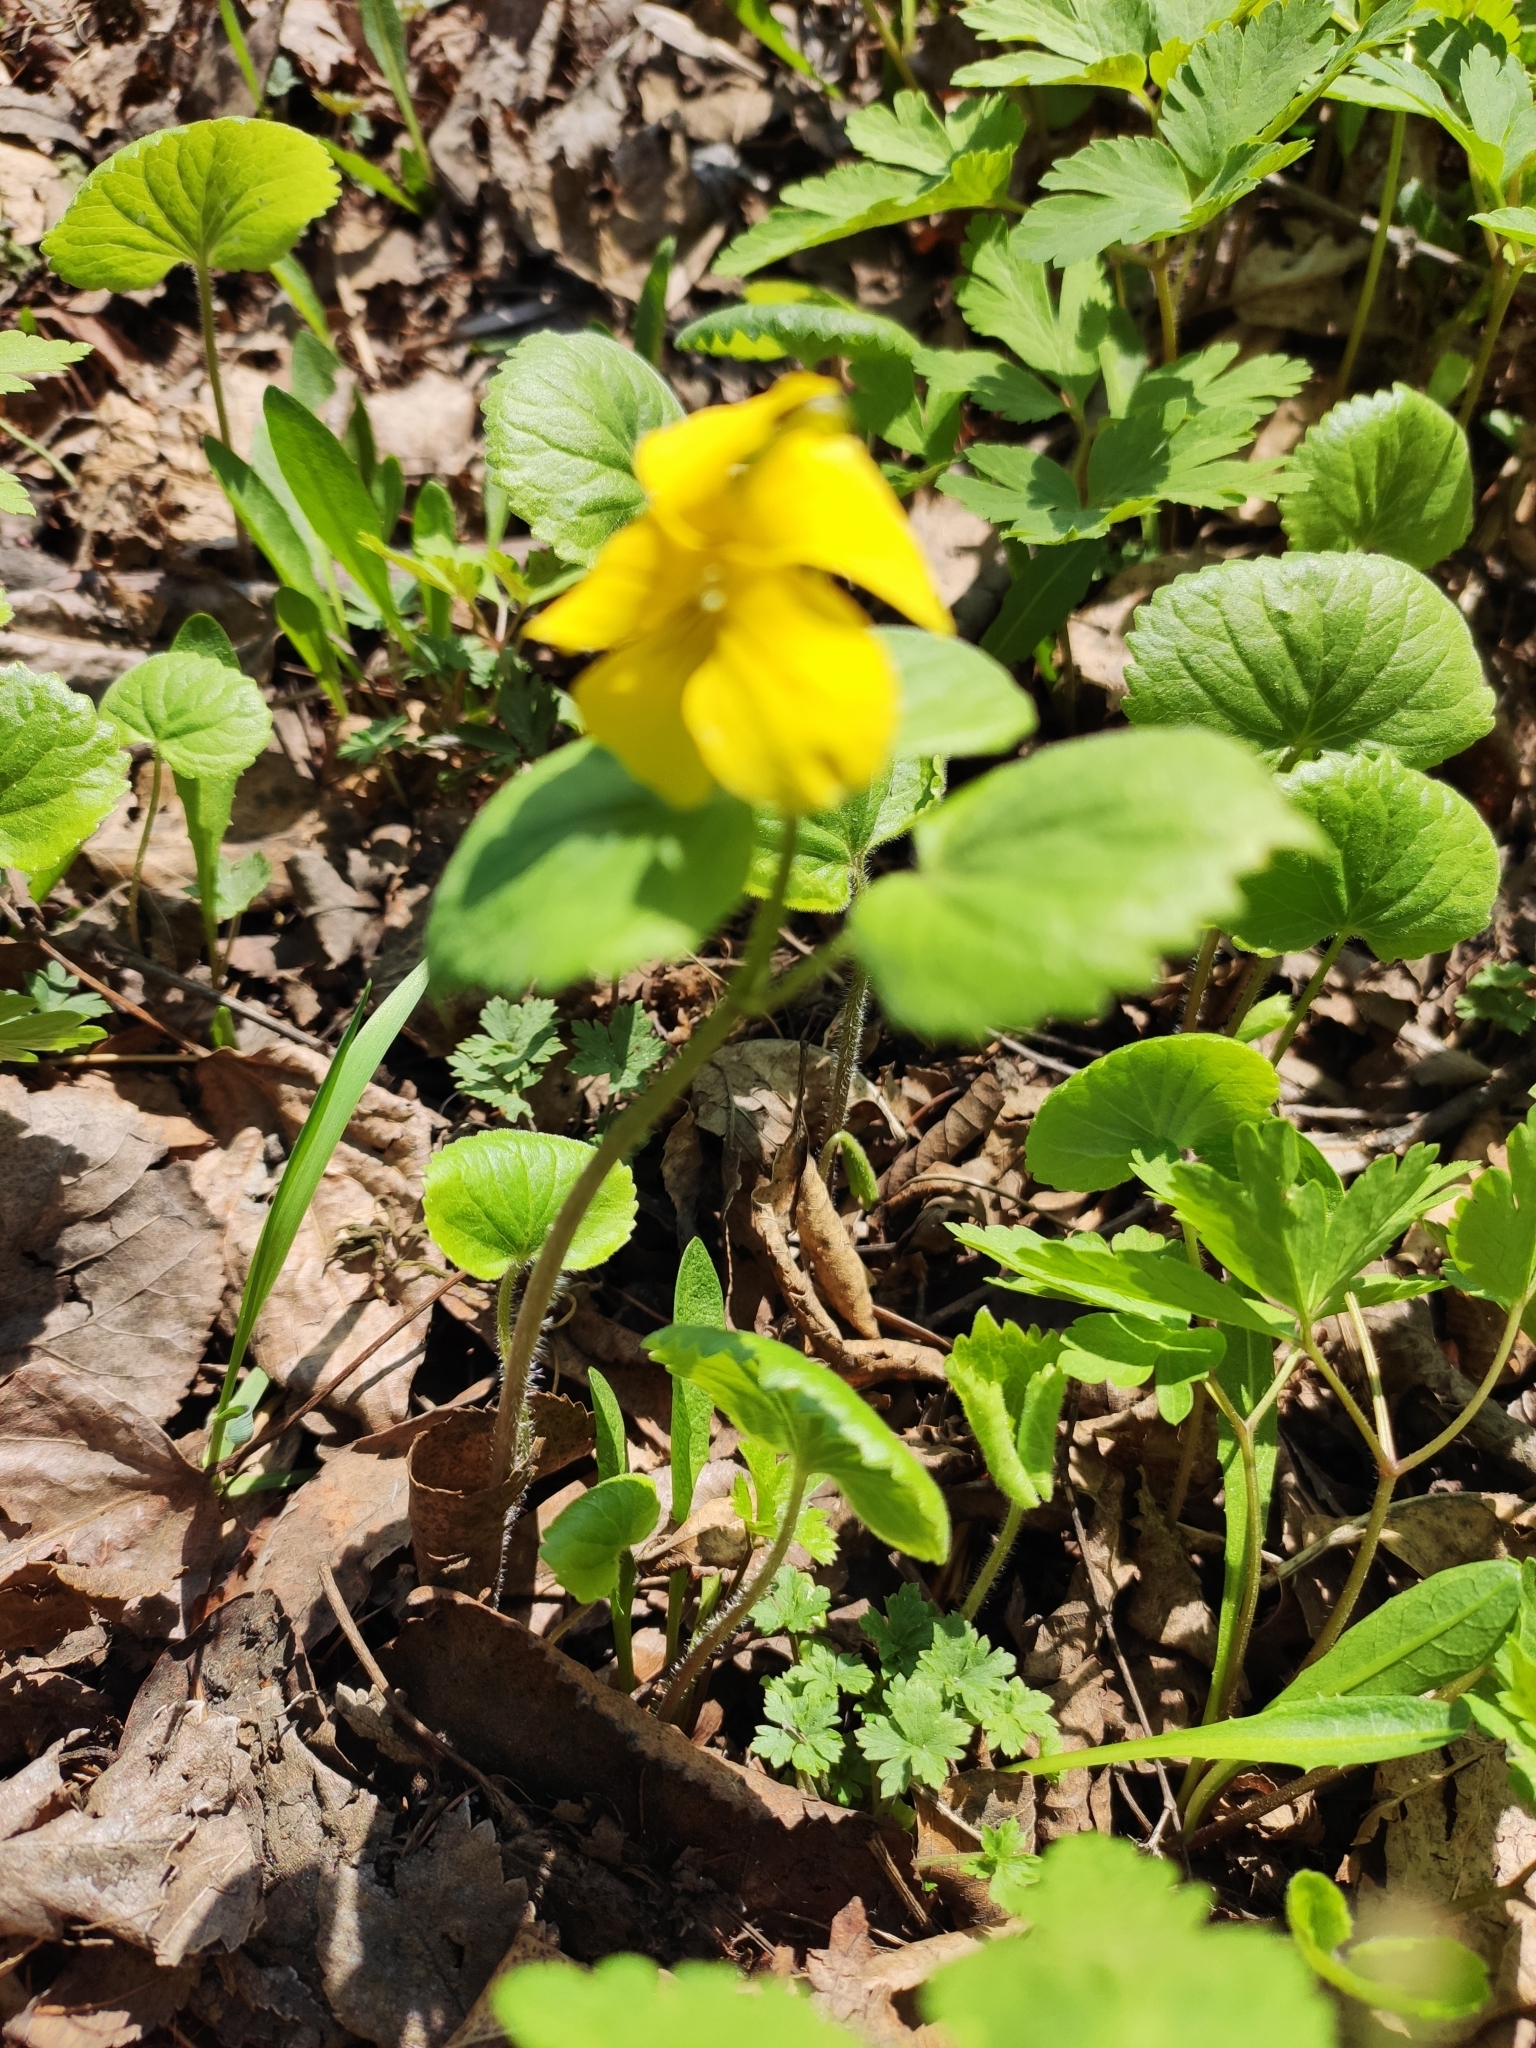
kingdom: Plantae
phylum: Tracheophyta
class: Magnoliopsida
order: Malpighiales
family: Violaceae
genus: Viola
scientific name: Viola uniflora
